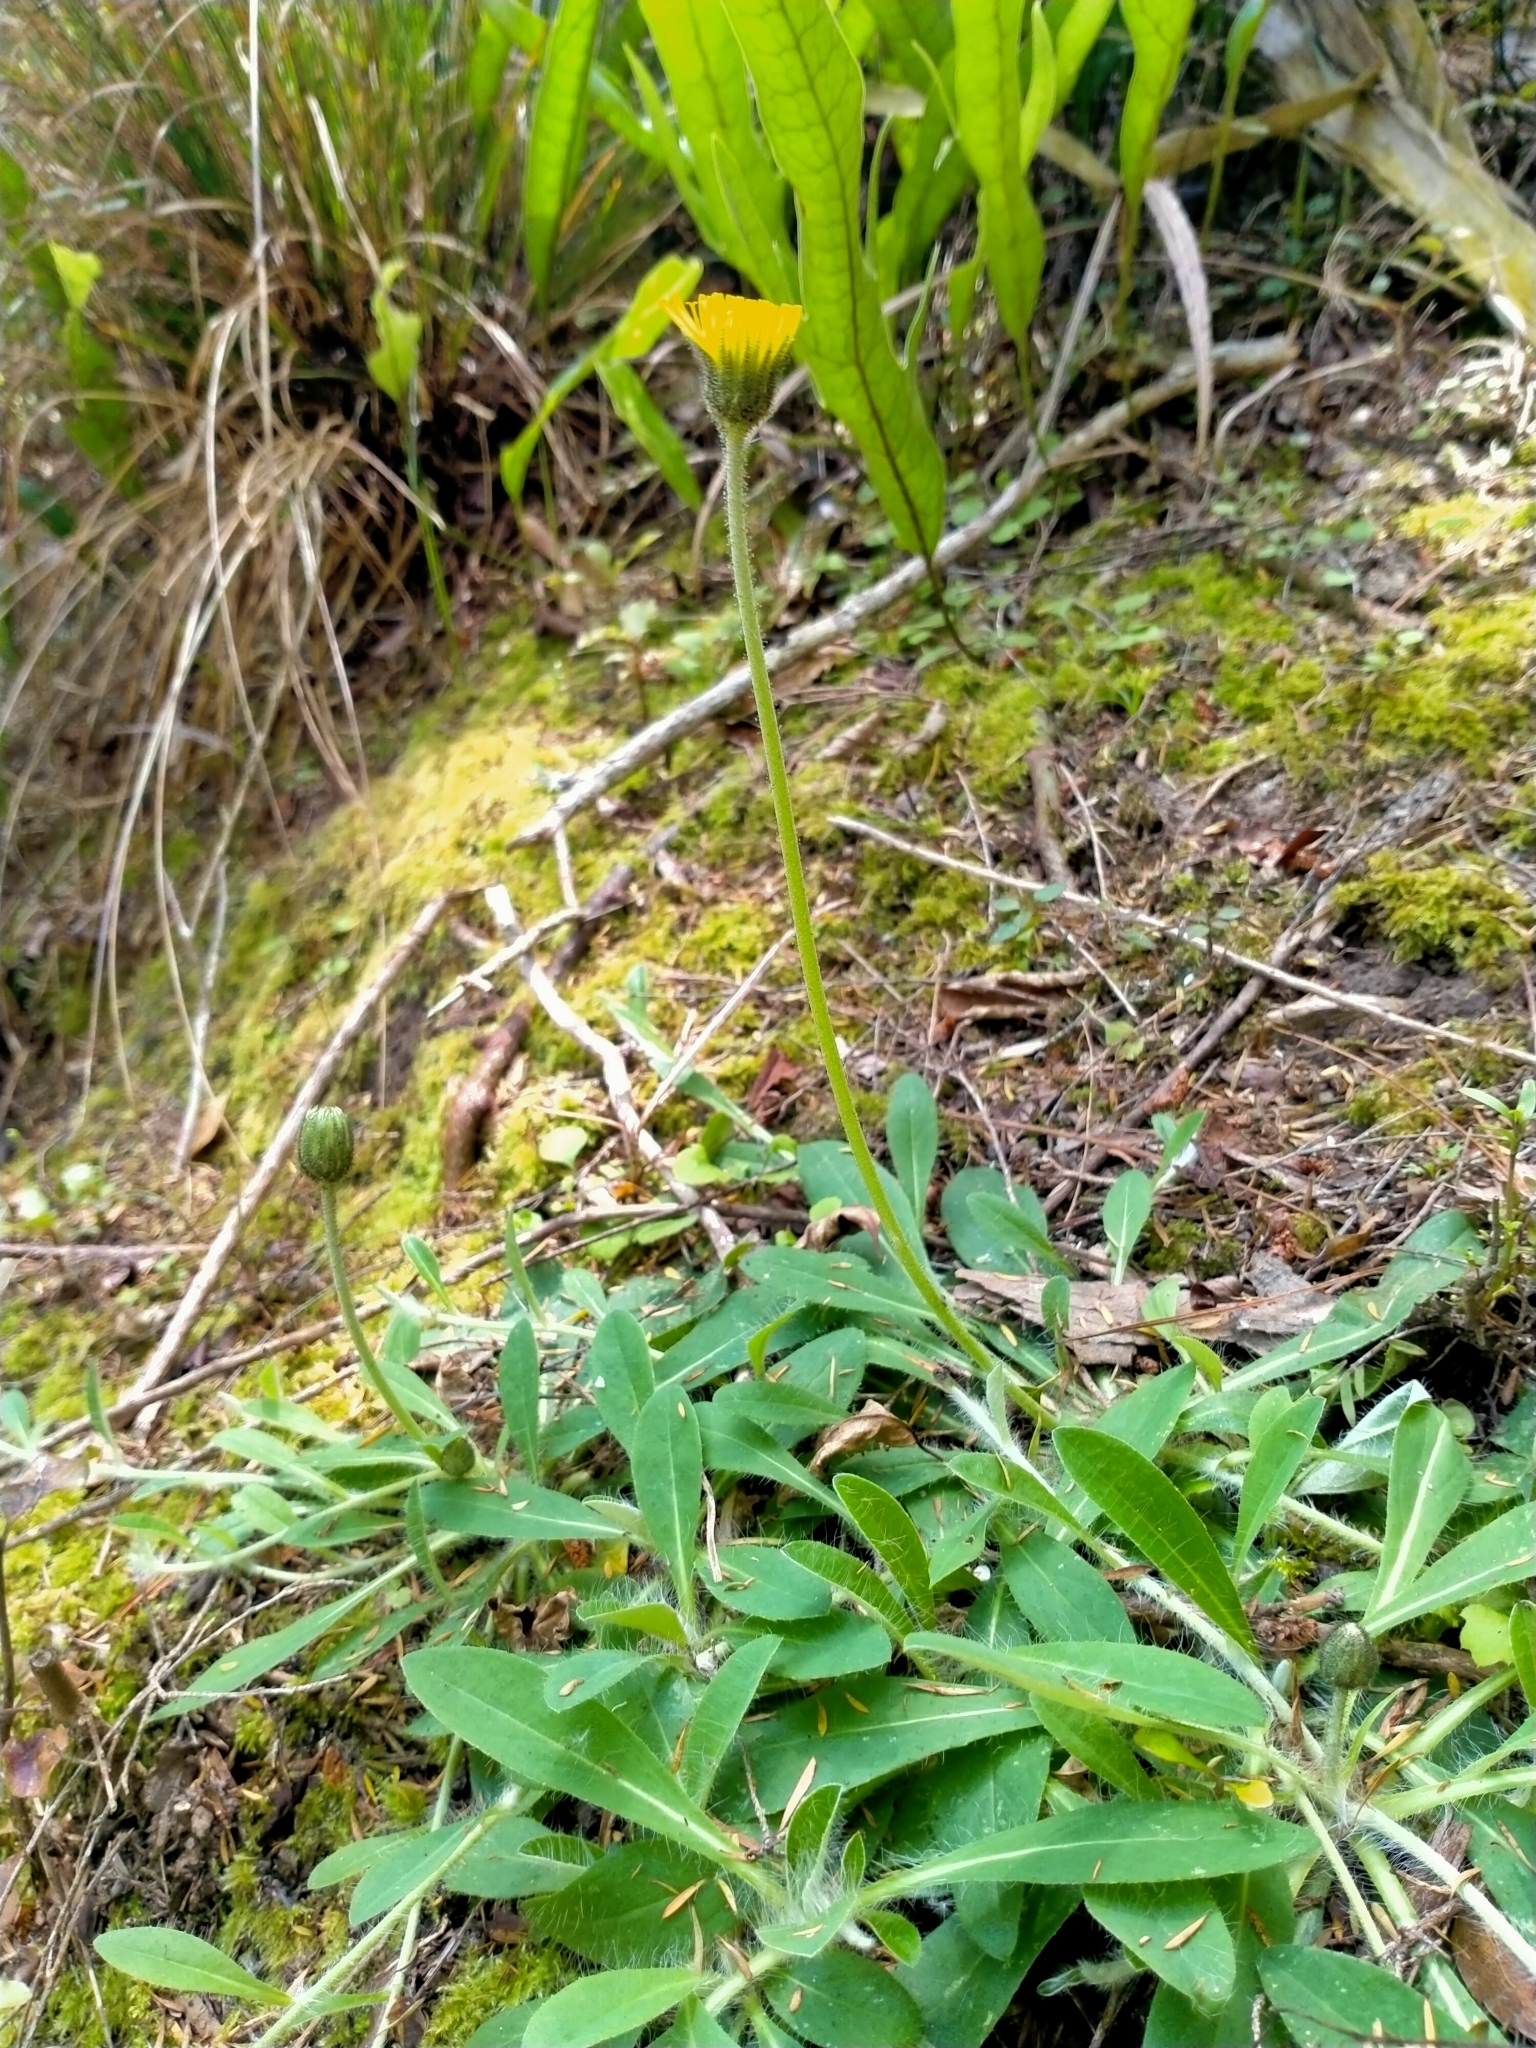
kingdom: Plantae
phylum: Tracheophyta
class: Magnoliopsida
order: Asterales
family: Asteraceae
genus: Pilosella
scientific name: Pilosella officinarum
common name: Mouse-ear hawkweed
